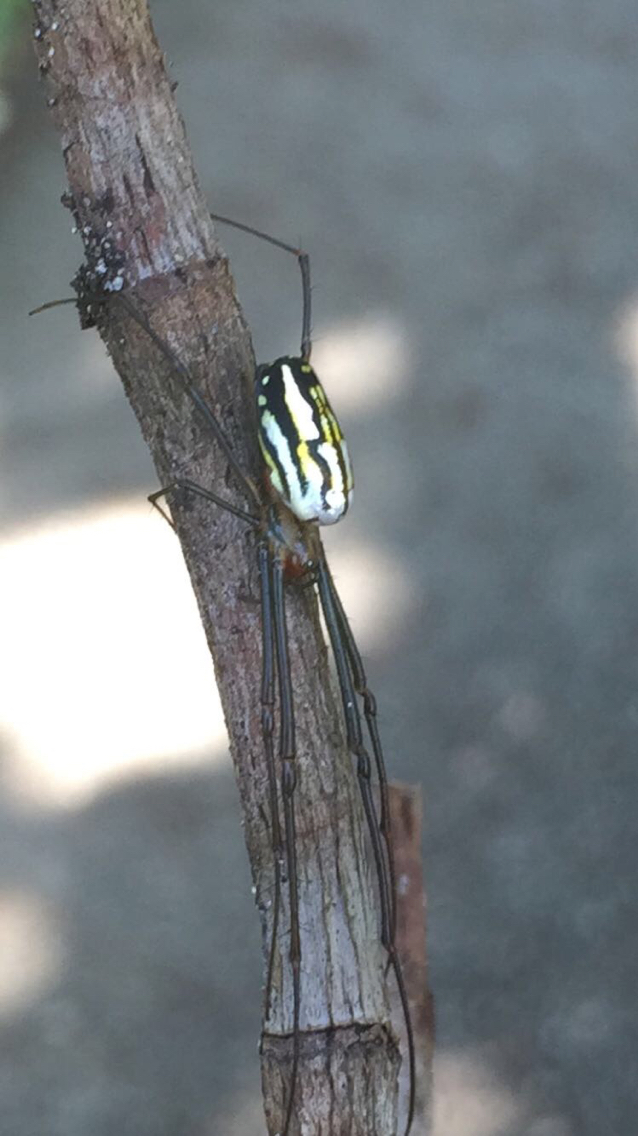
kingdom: Animalia
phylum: Arthropoda
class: Arachnida
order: Araneae
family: Tetragnathidae
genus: Leucauge
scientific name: Leucauge argyra
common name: Longjawed orb weavers
